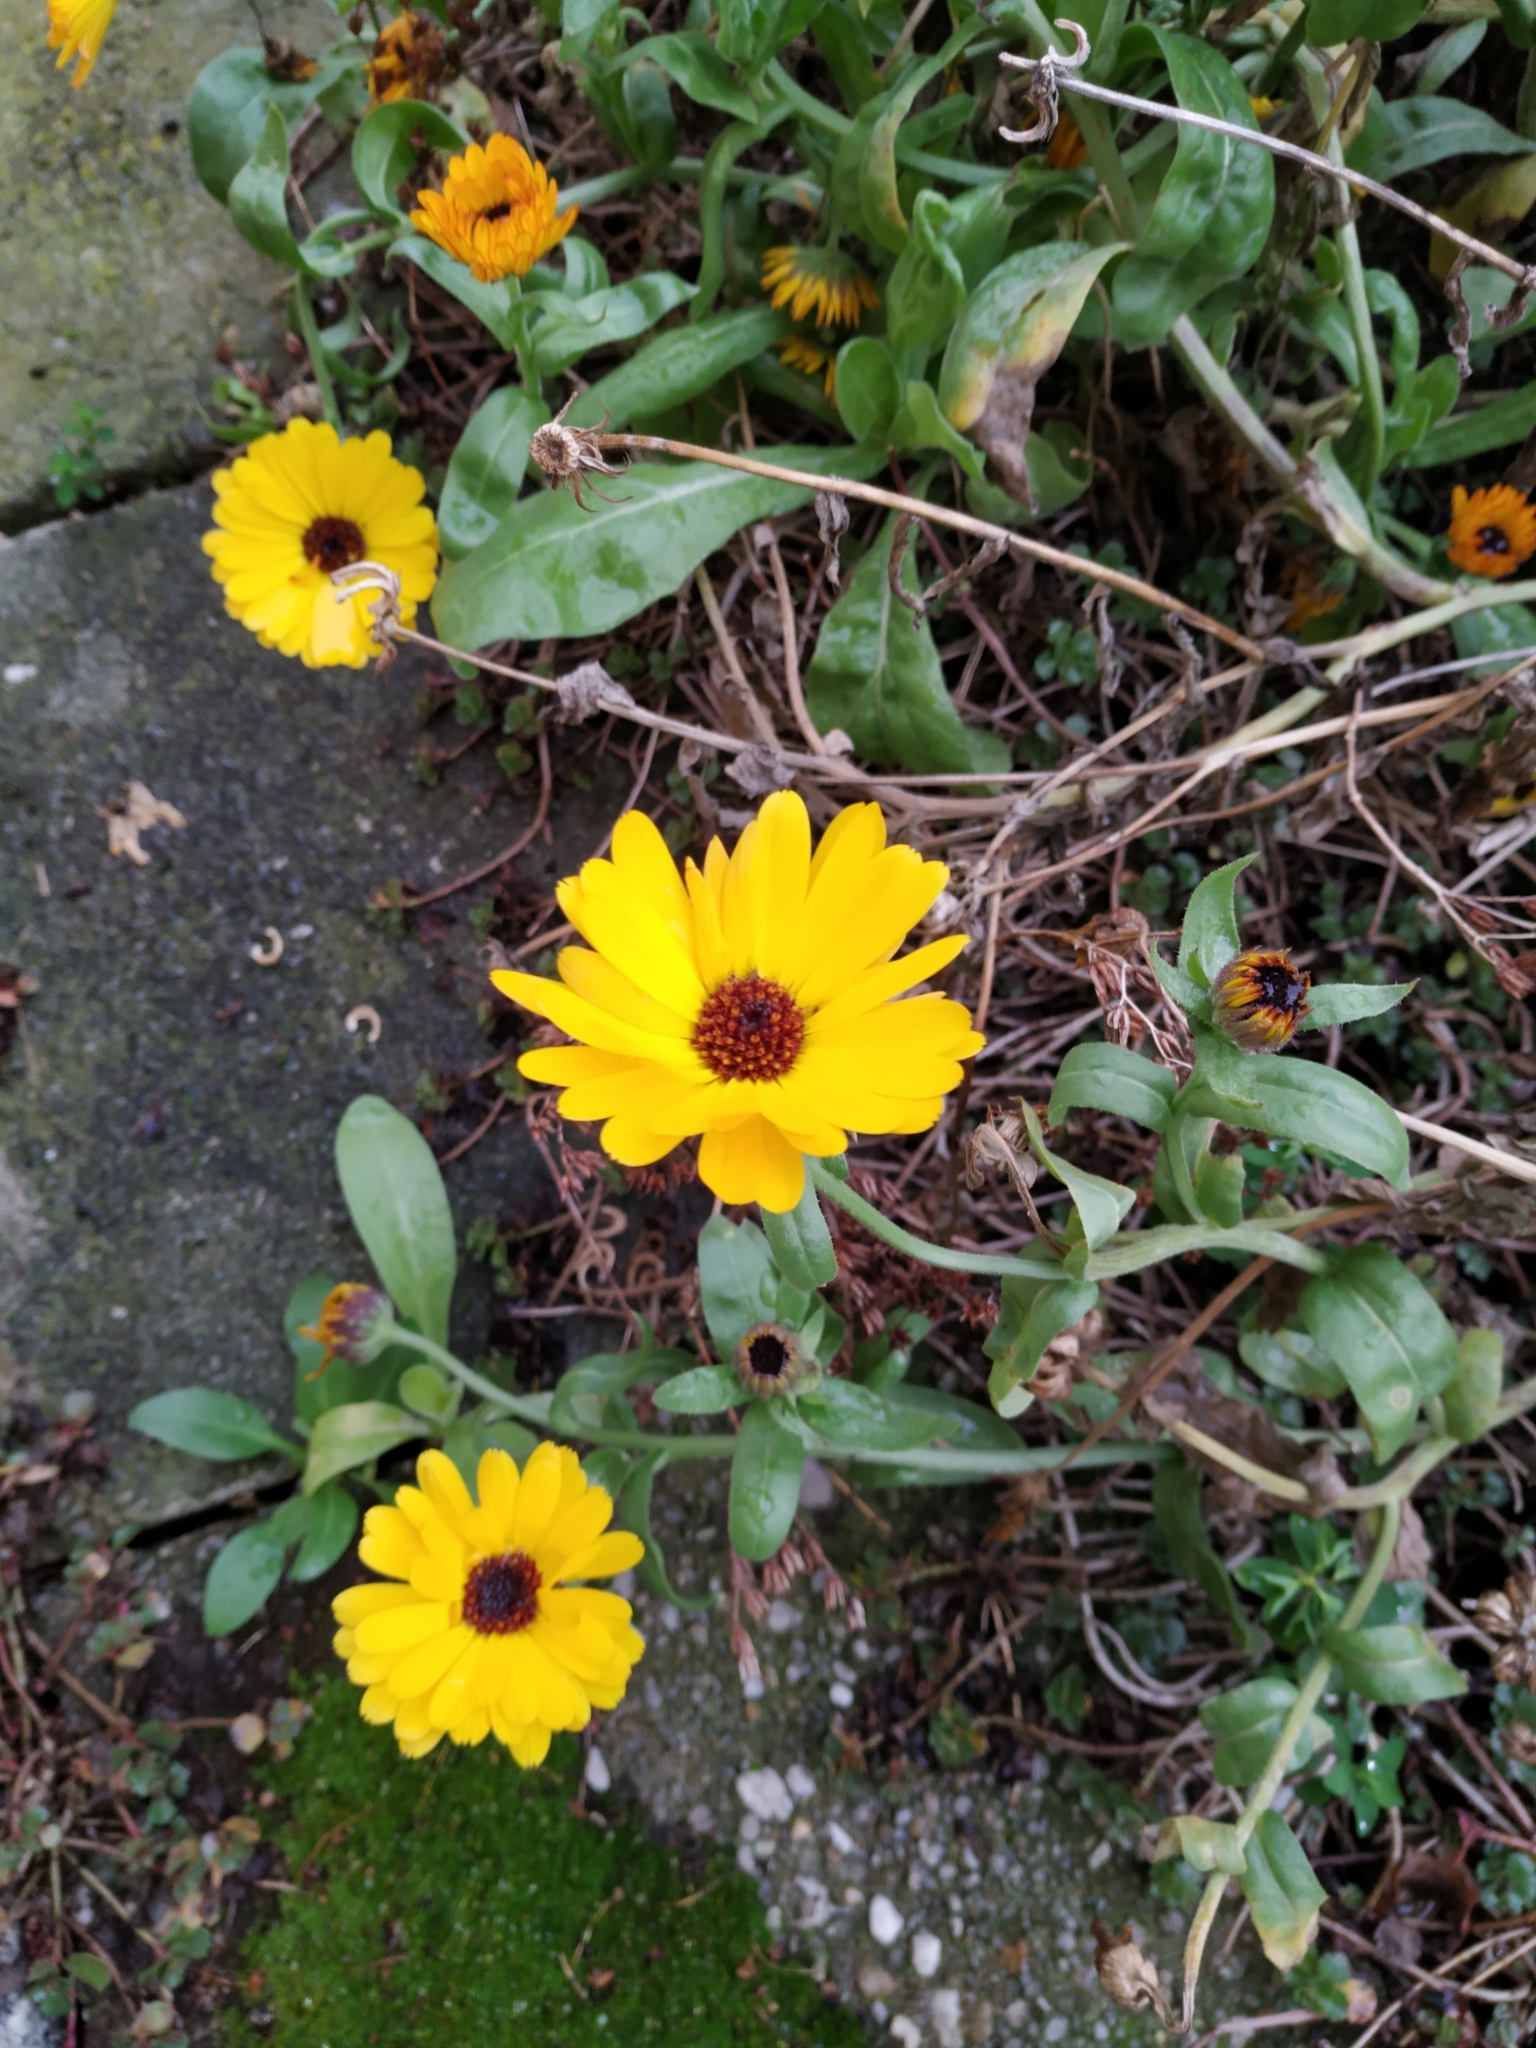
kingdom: Plantae
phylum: Tracheophyta
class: Magnoliopsida
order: Asterales
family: Asteraceae
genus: Calendula
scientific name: Calendula officinalis
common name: Pot marigold
